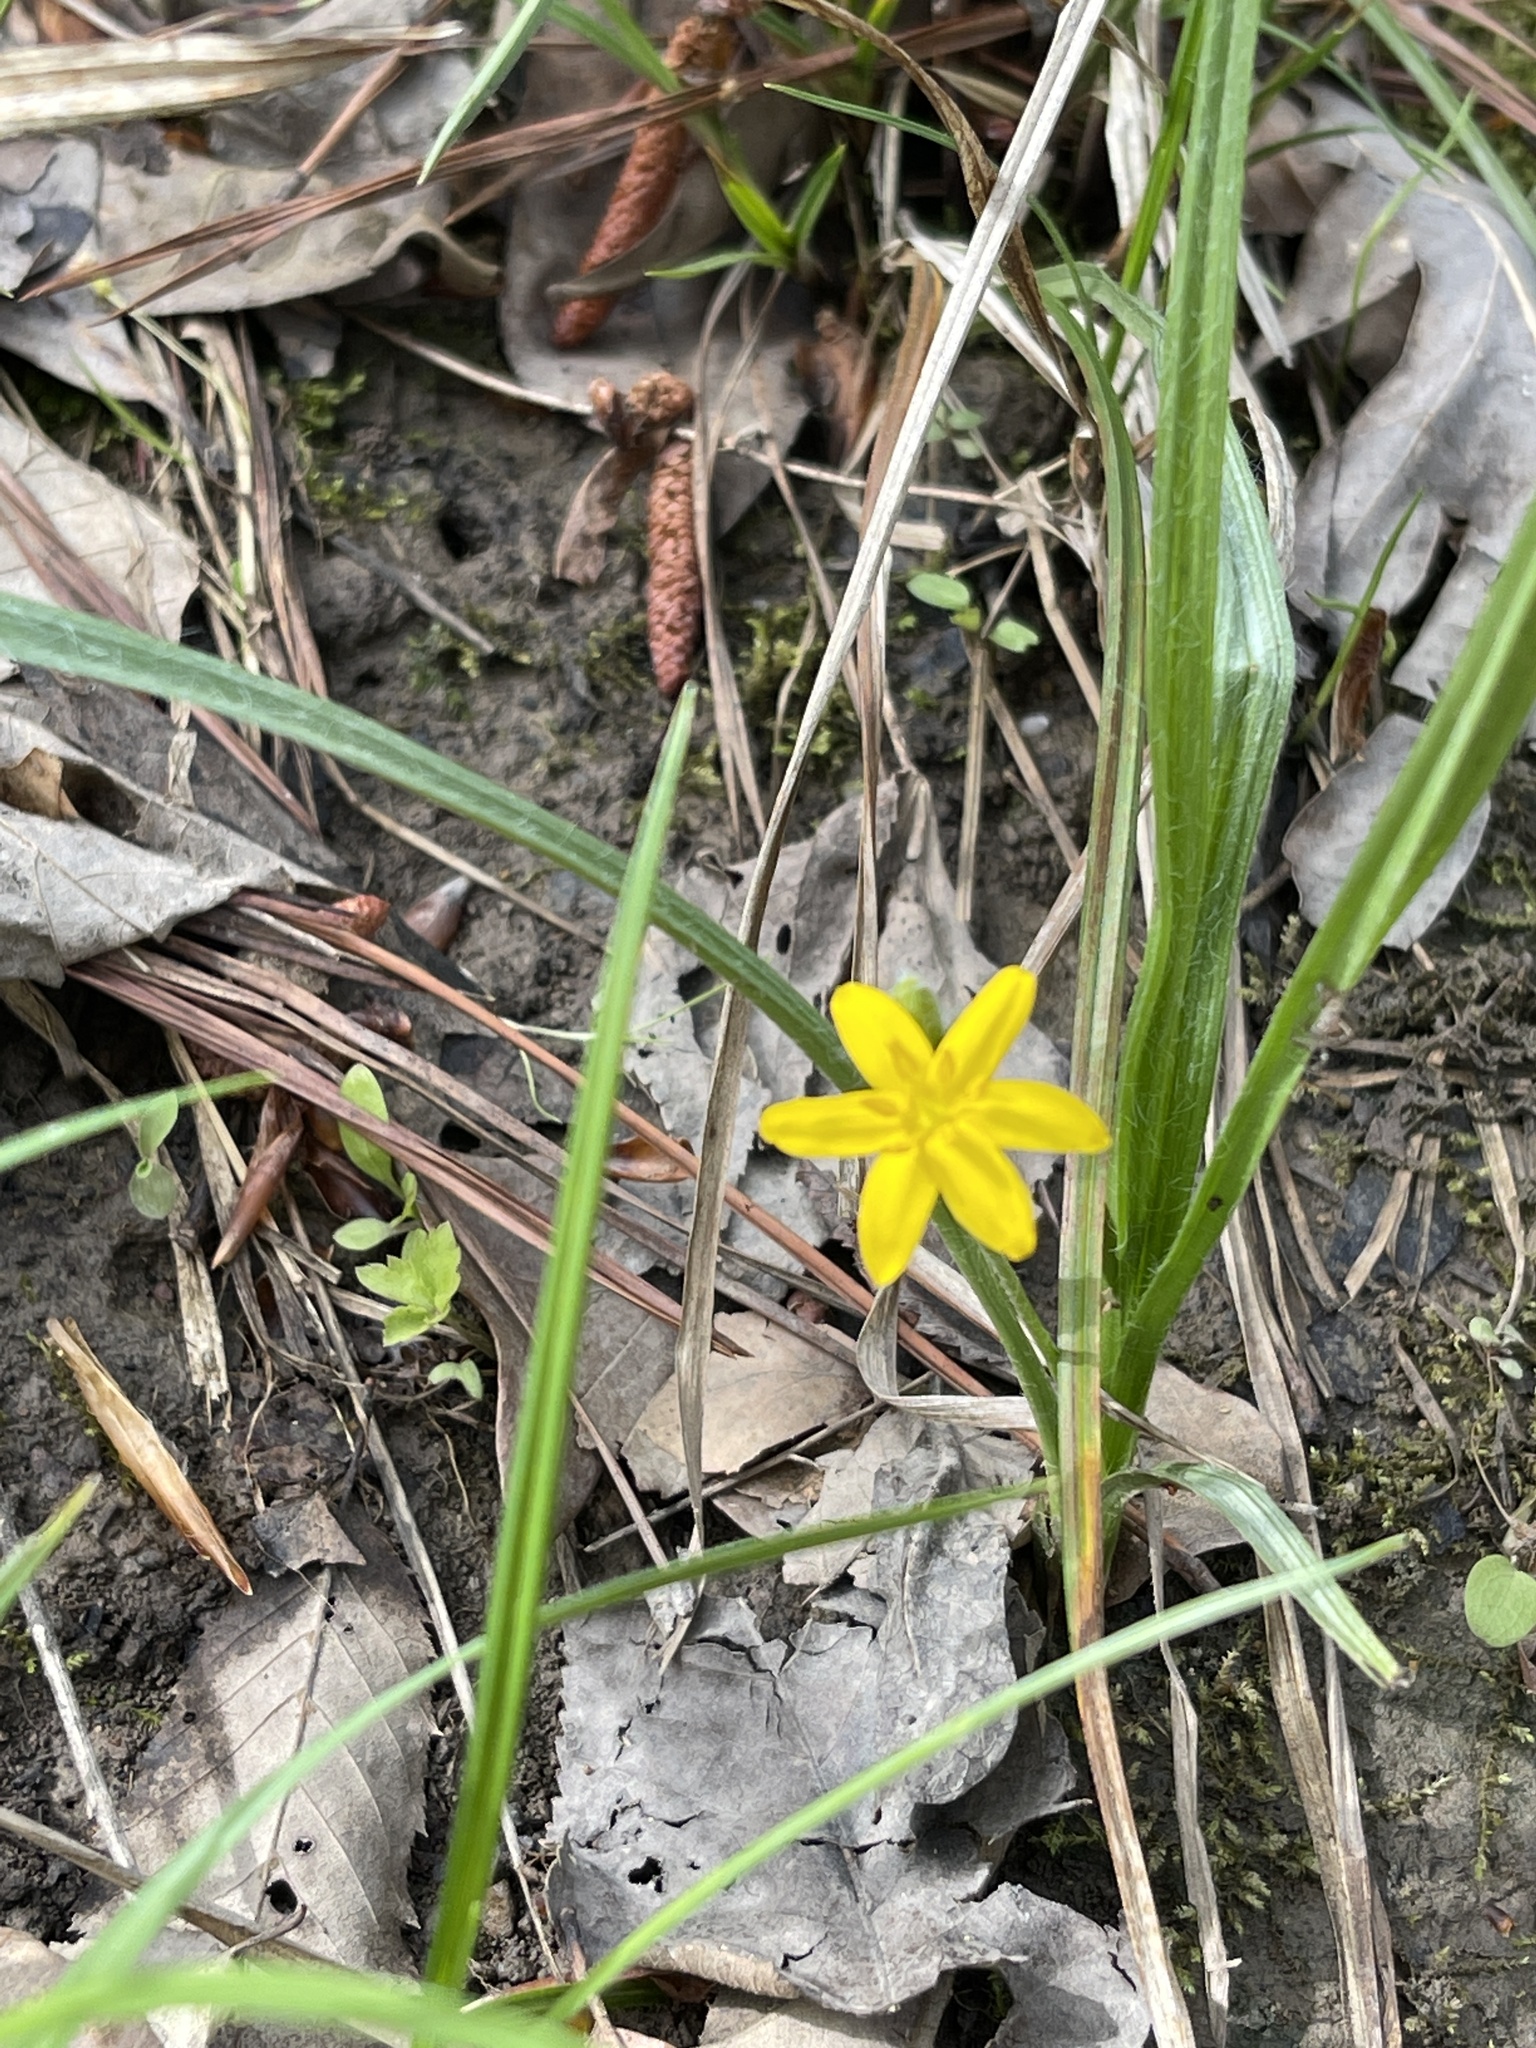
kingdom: Plantae
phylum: Tracheophyta
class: Liliopsida
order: Asparagales
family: Hypoxidaceae
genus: Hypoxis
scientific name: Hypoxis hirsuta
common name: Common goldstar
